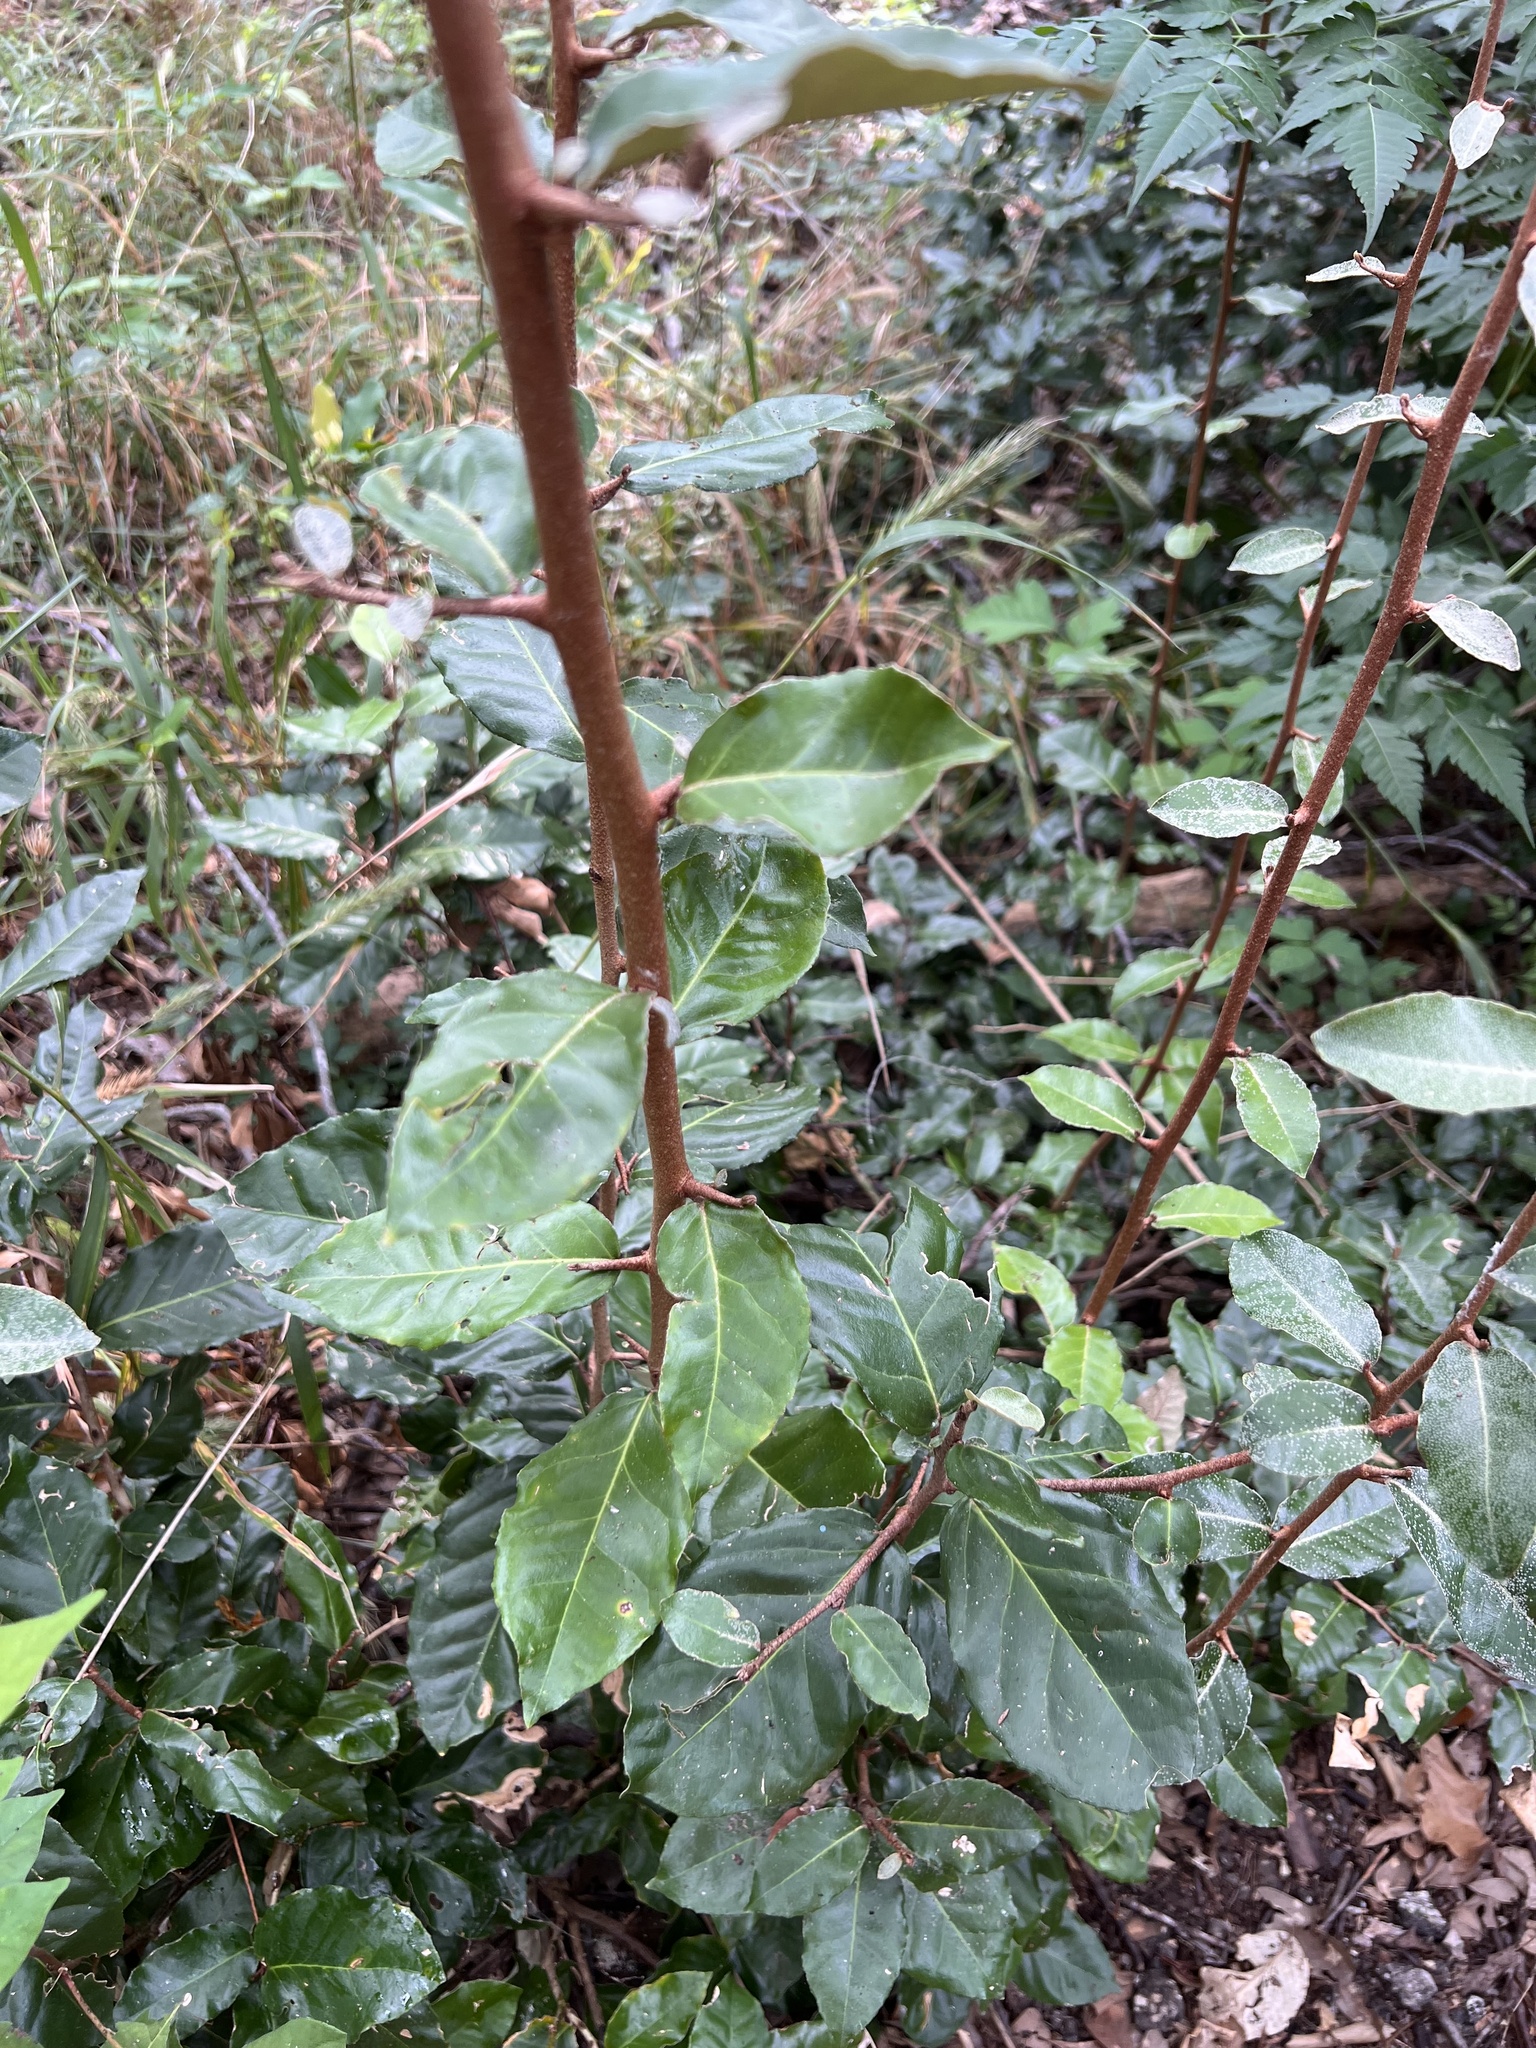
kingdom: Plantae
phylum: Tracheophyta
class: Magnoliopsida
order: Rosales
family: Elaeagnaceae
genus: Elaeagnus
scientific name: Elaeagnus pungens
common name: Spiny oleaster
